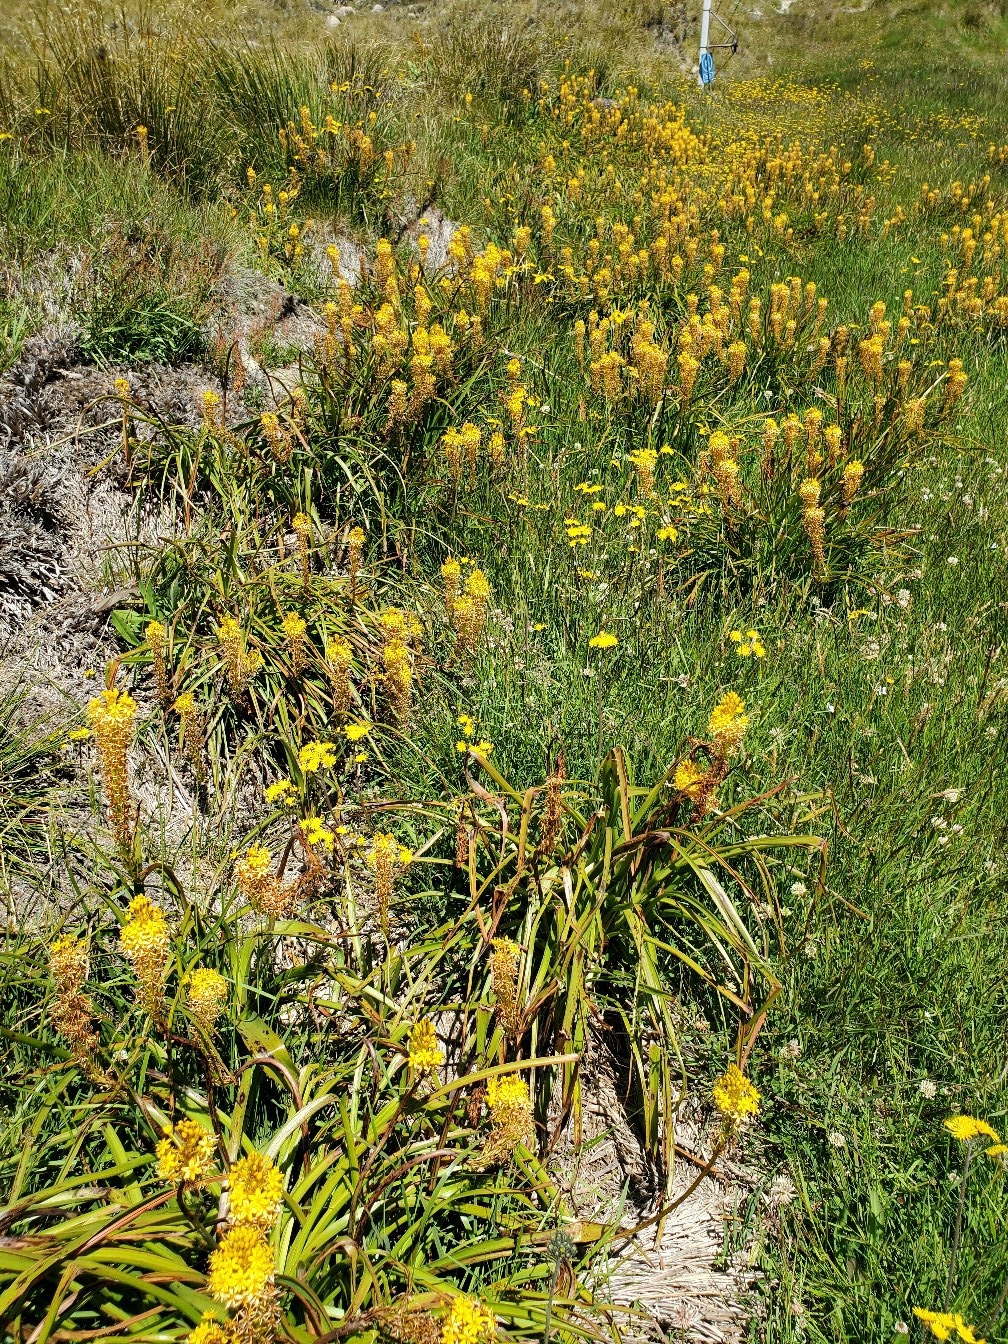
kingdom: Plantae
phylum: Tracheophyta
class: Liliopsida
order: Asparagales
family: Asphodelaceae
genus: Bulbinella
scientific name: Bulbinella hookeri
